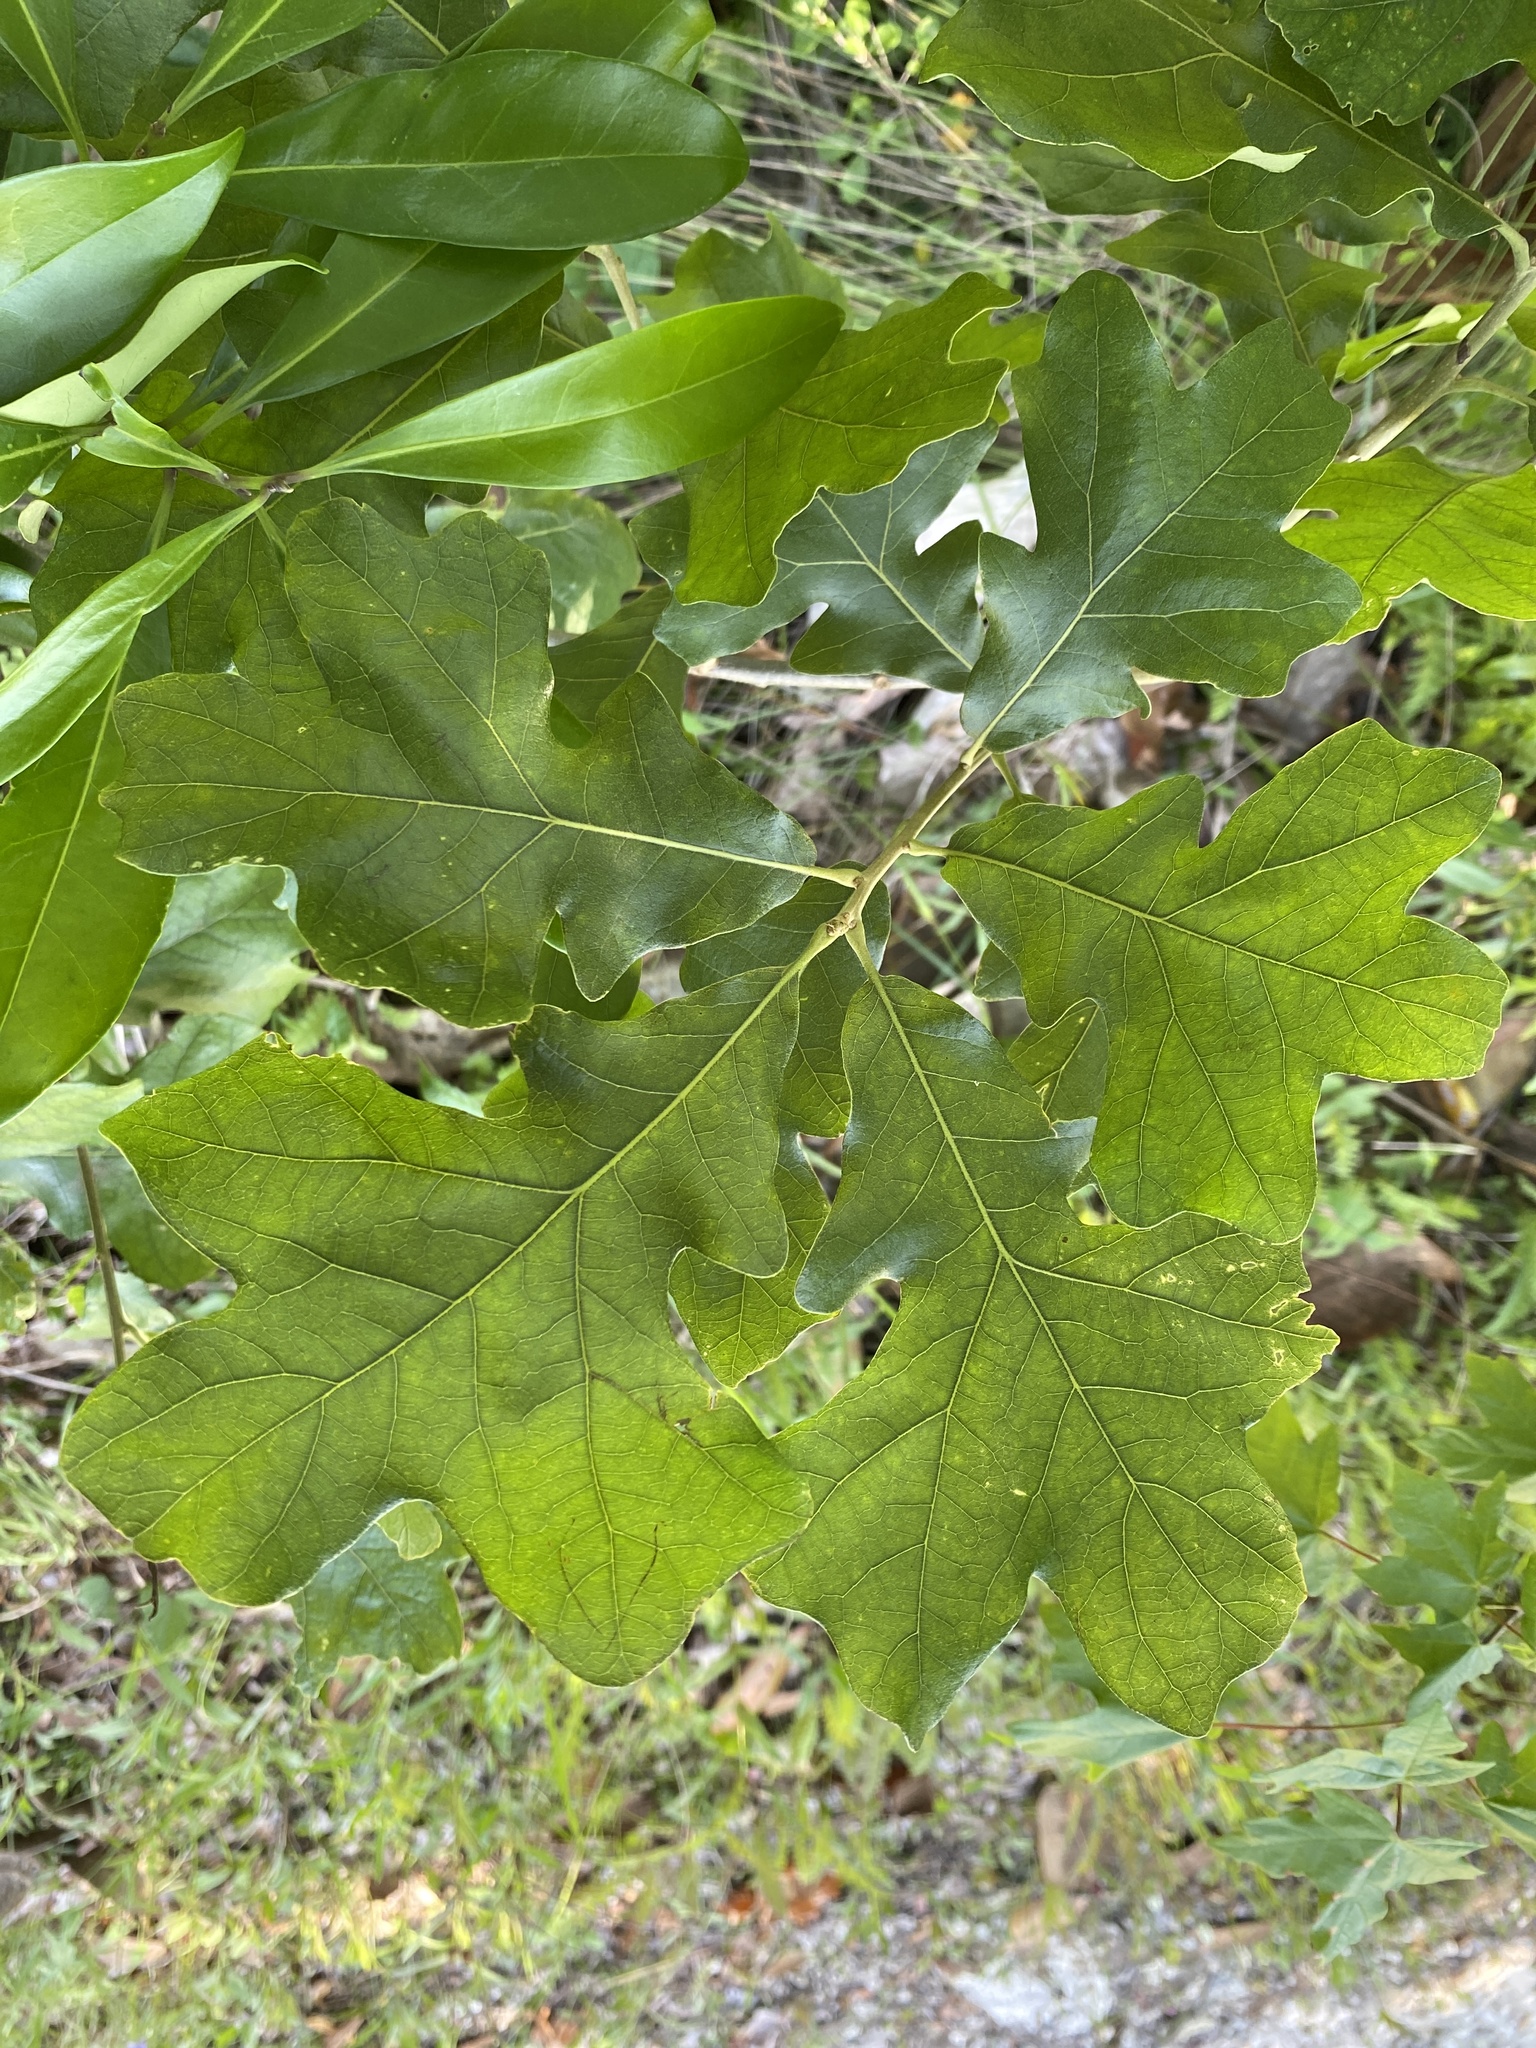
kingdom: Plantae
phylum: Tracheophyta
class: Magnoliopsida
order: Fagales
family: Fagaceae
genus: Quercus
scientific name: Quercus stellata
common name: Post oak
